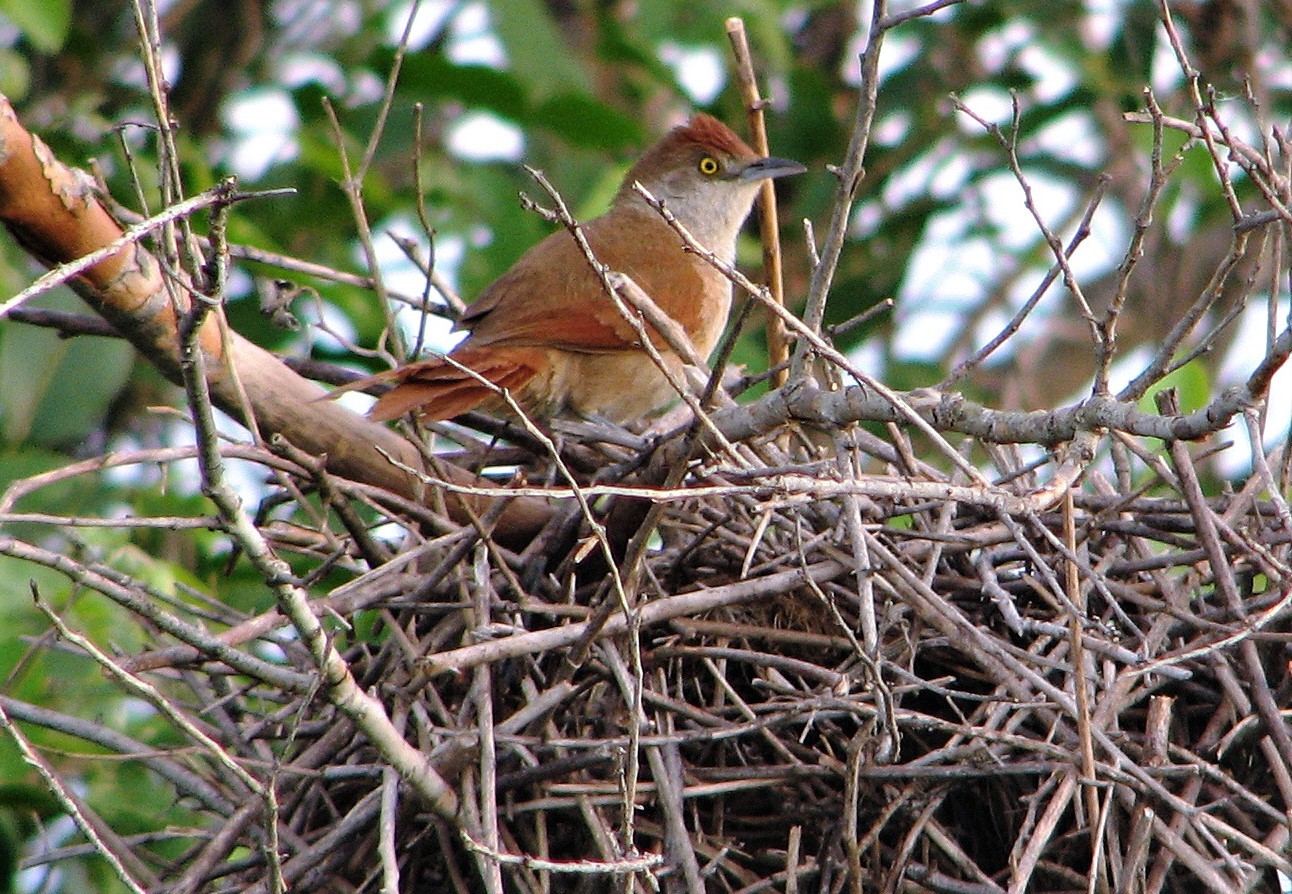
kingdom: Animalia
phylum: Chordata
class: Aves
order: Passeriformes
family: Furnariidae
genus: Phacellodomus
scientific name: Phacellodomus ruber
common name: Greater thornbird
